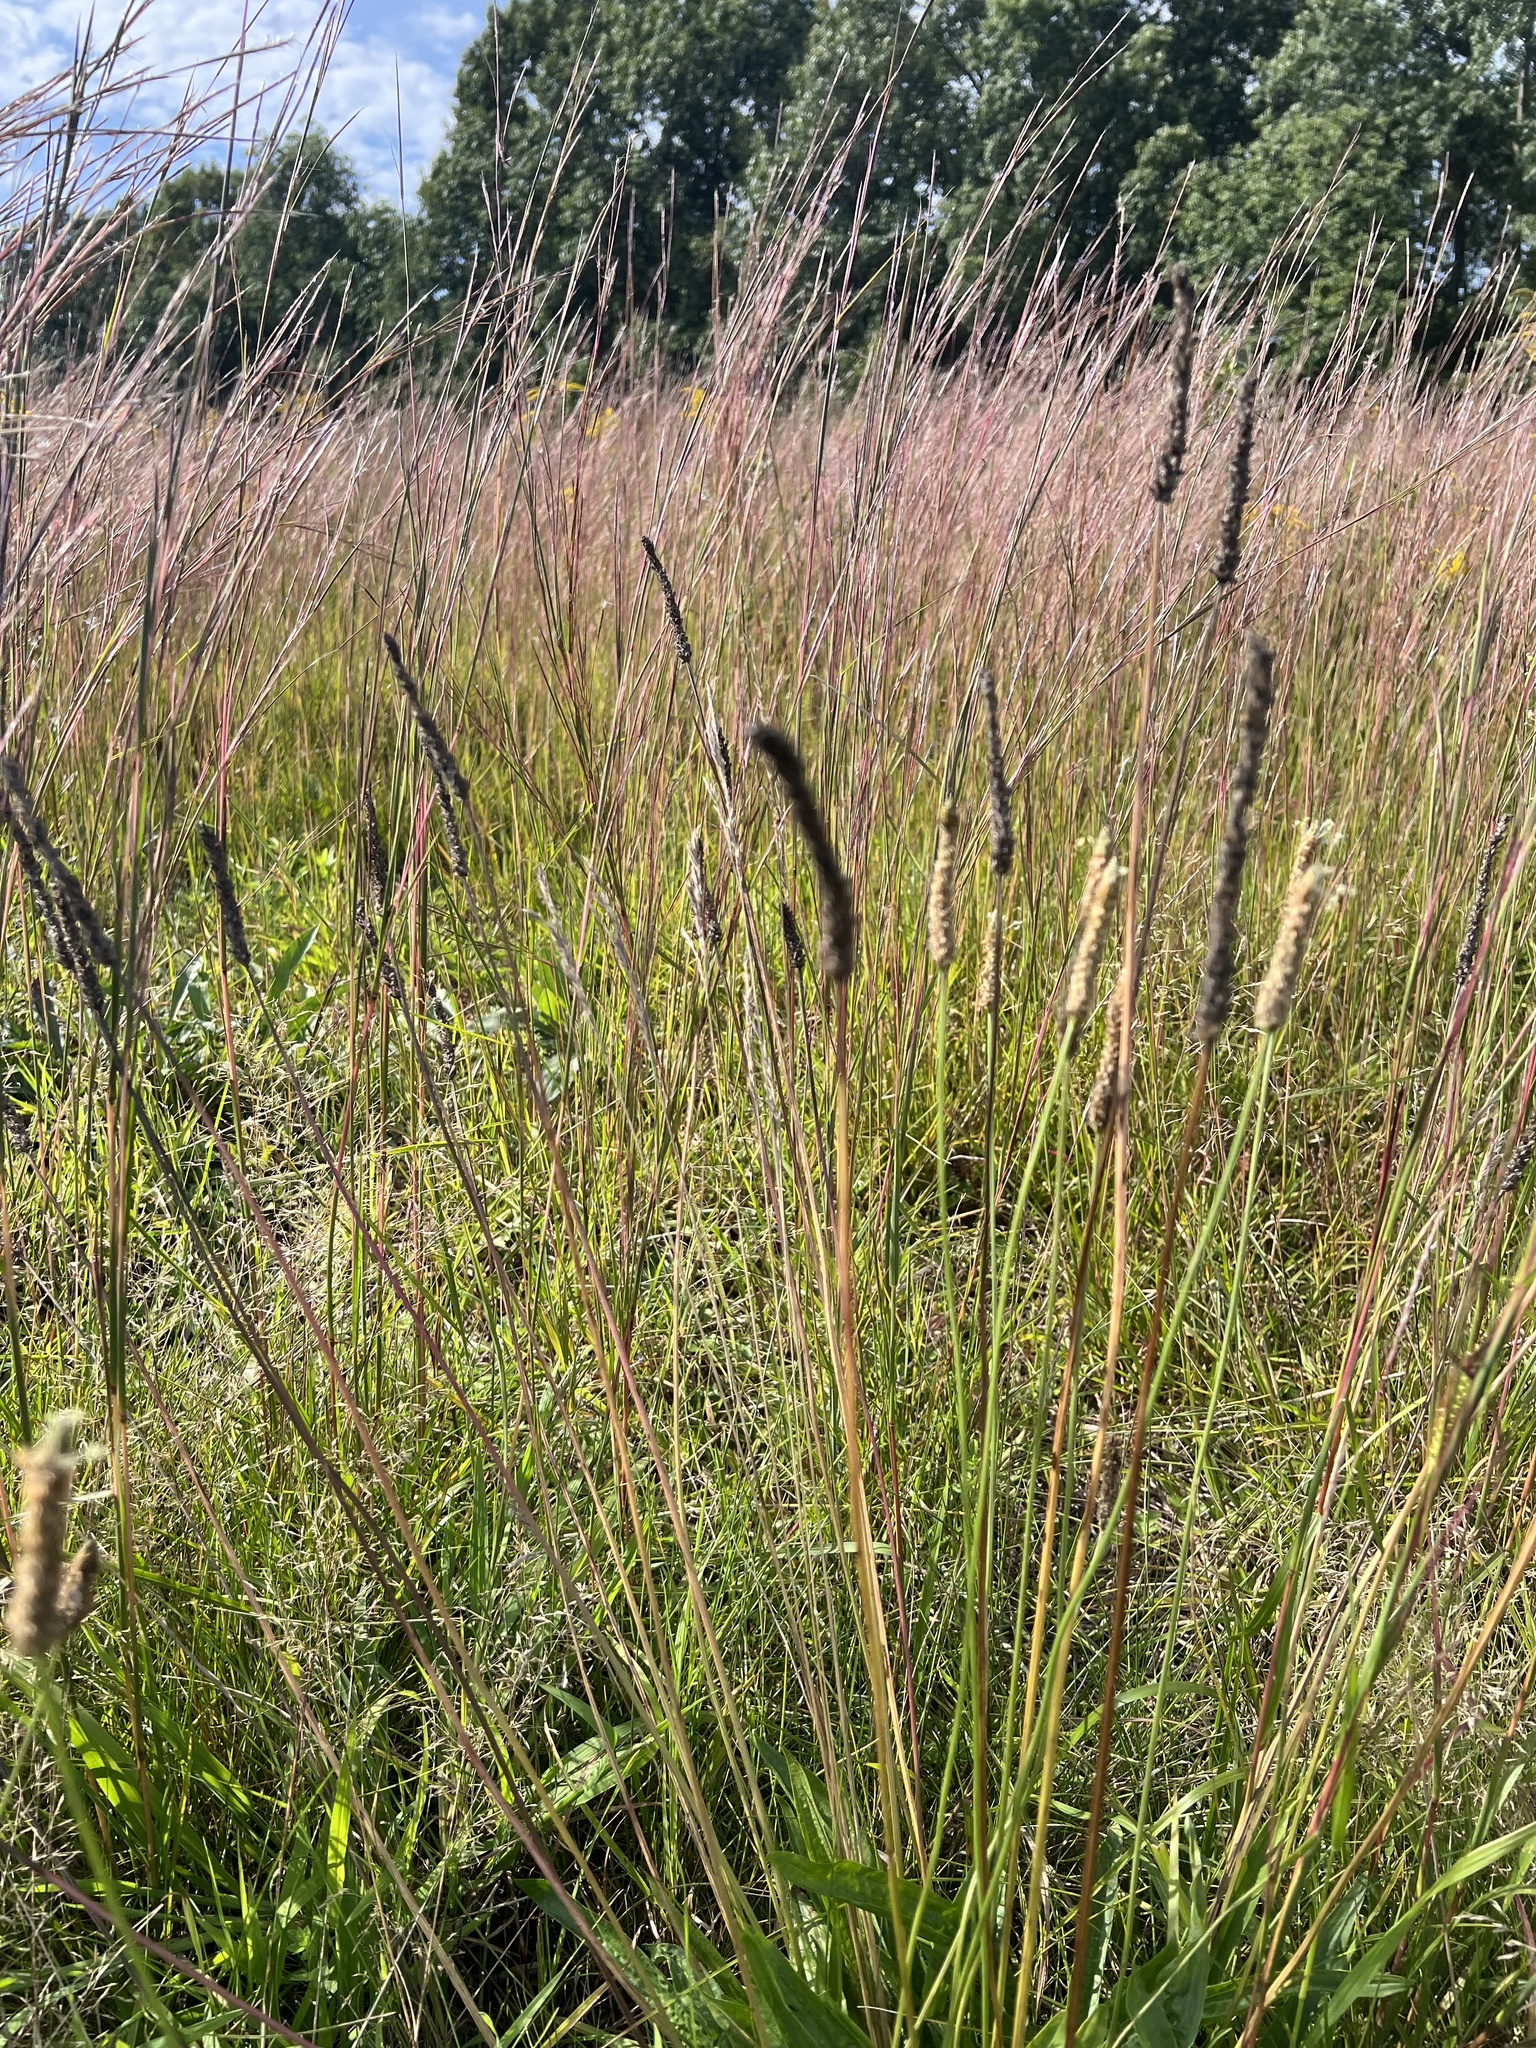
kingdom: Plantae
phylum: Tracheophyta
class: Magnoliopsida
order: Lamiales
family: Plantaginaceae
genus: Plantago
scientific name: Plantago lanceolata
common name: Ribwort plantain
